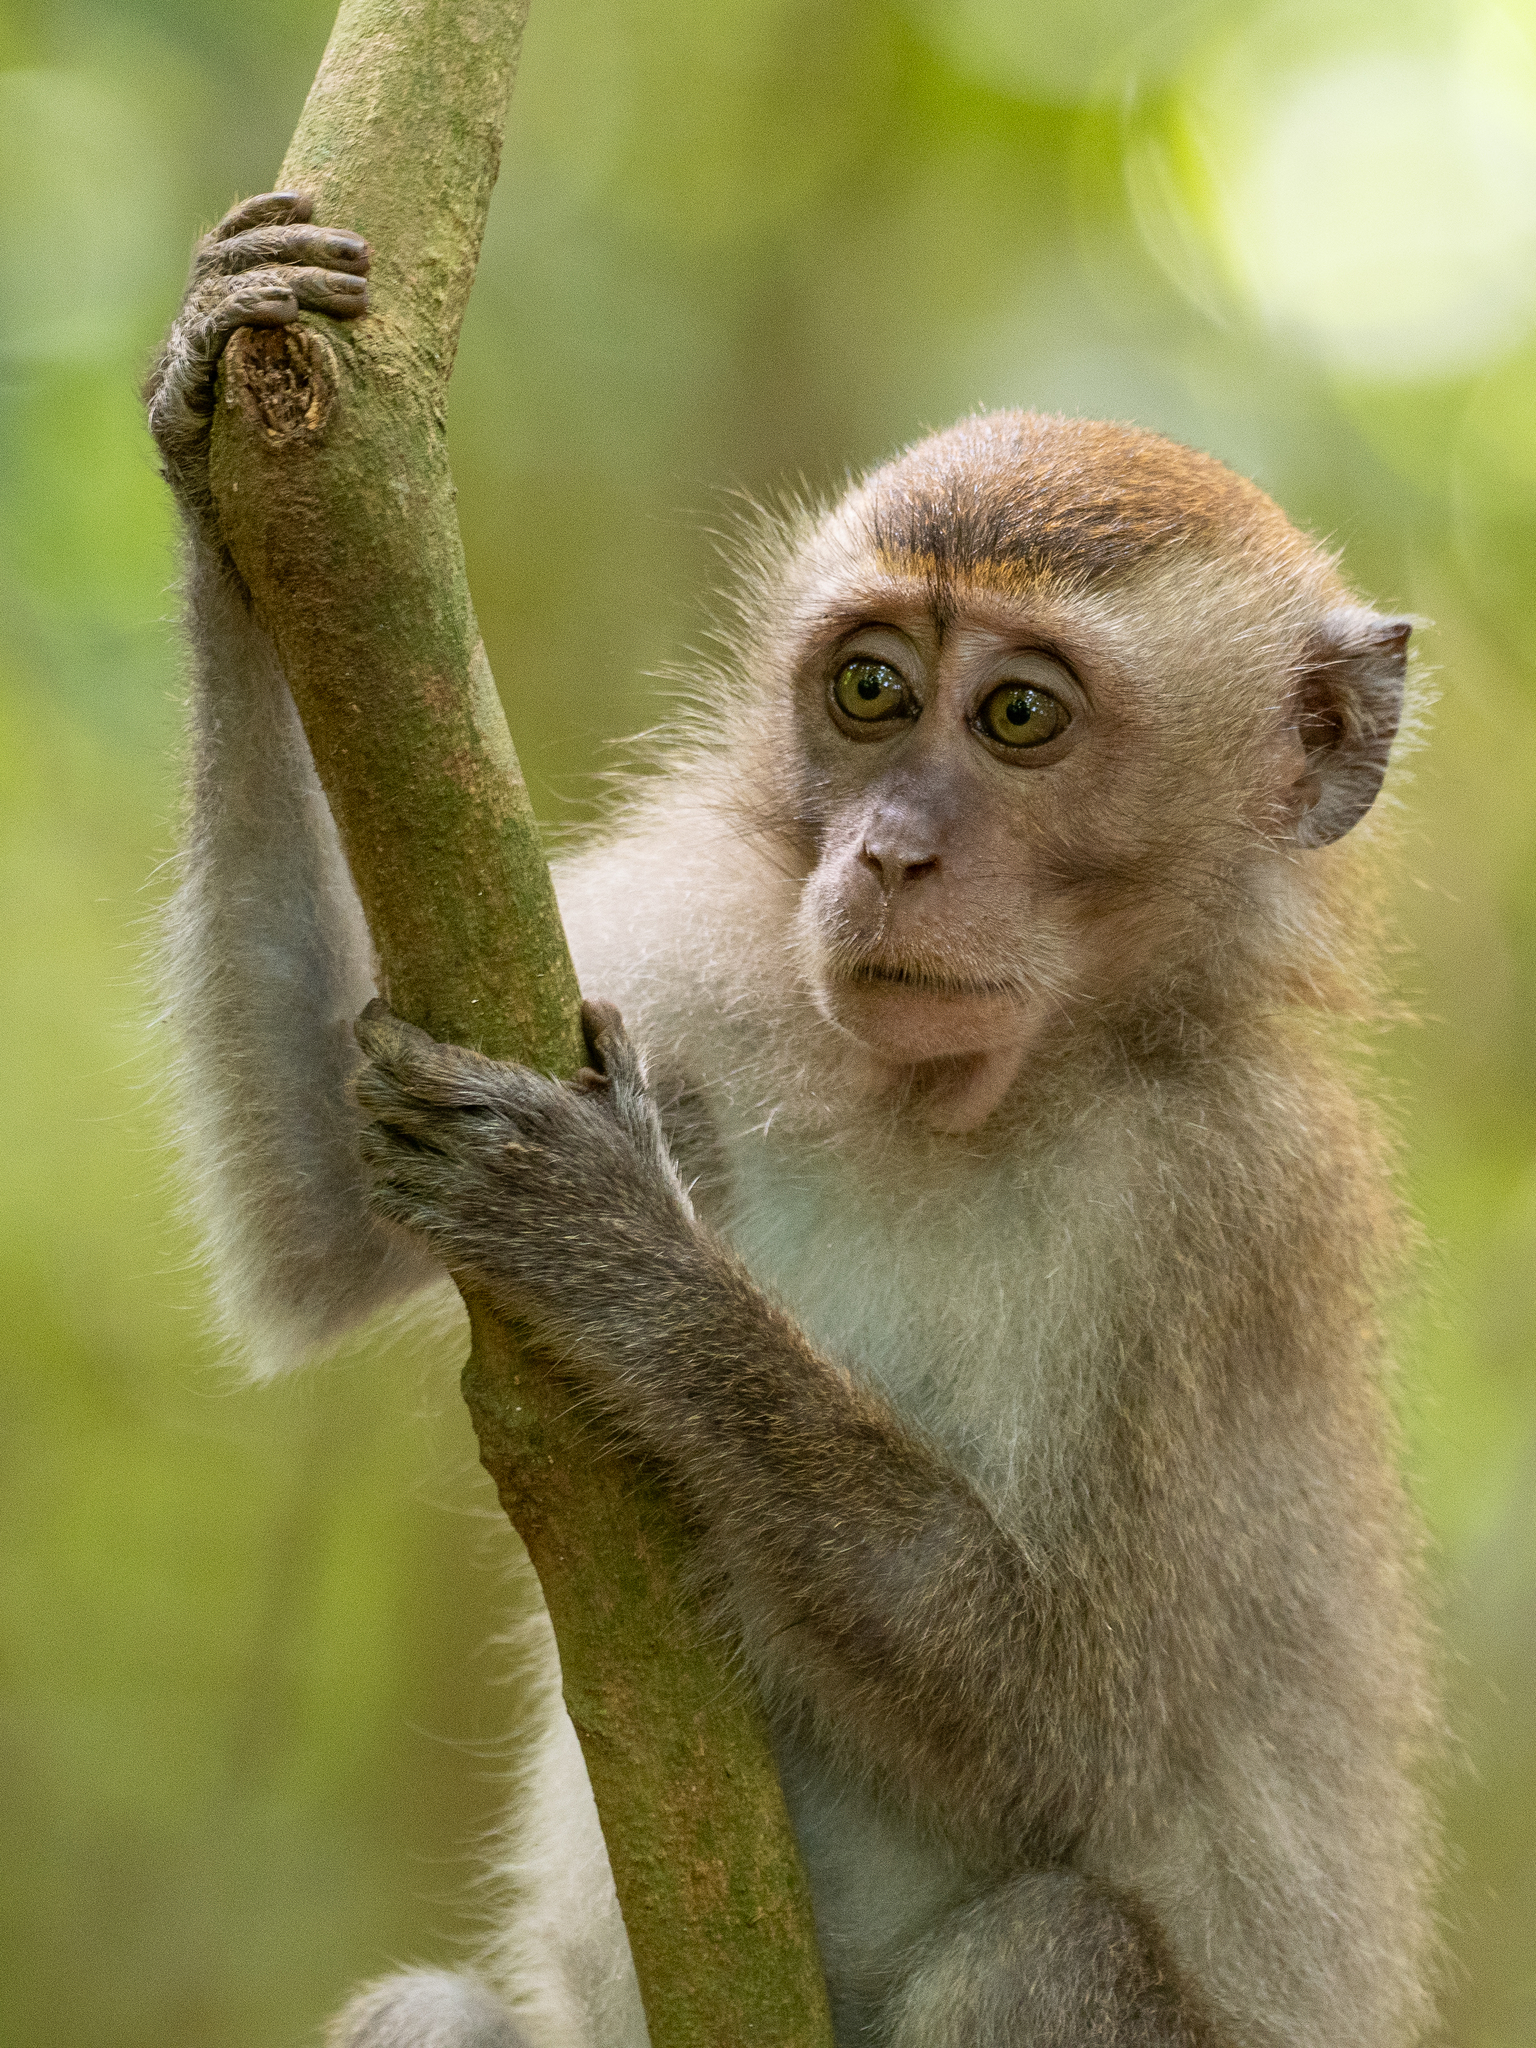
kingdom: Animalia
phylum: Chordata
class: Mammalia
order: Primates
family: Cercopithecidae
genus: Macaca
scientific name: Macaca fascicularis
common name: Crab-eating macaque
